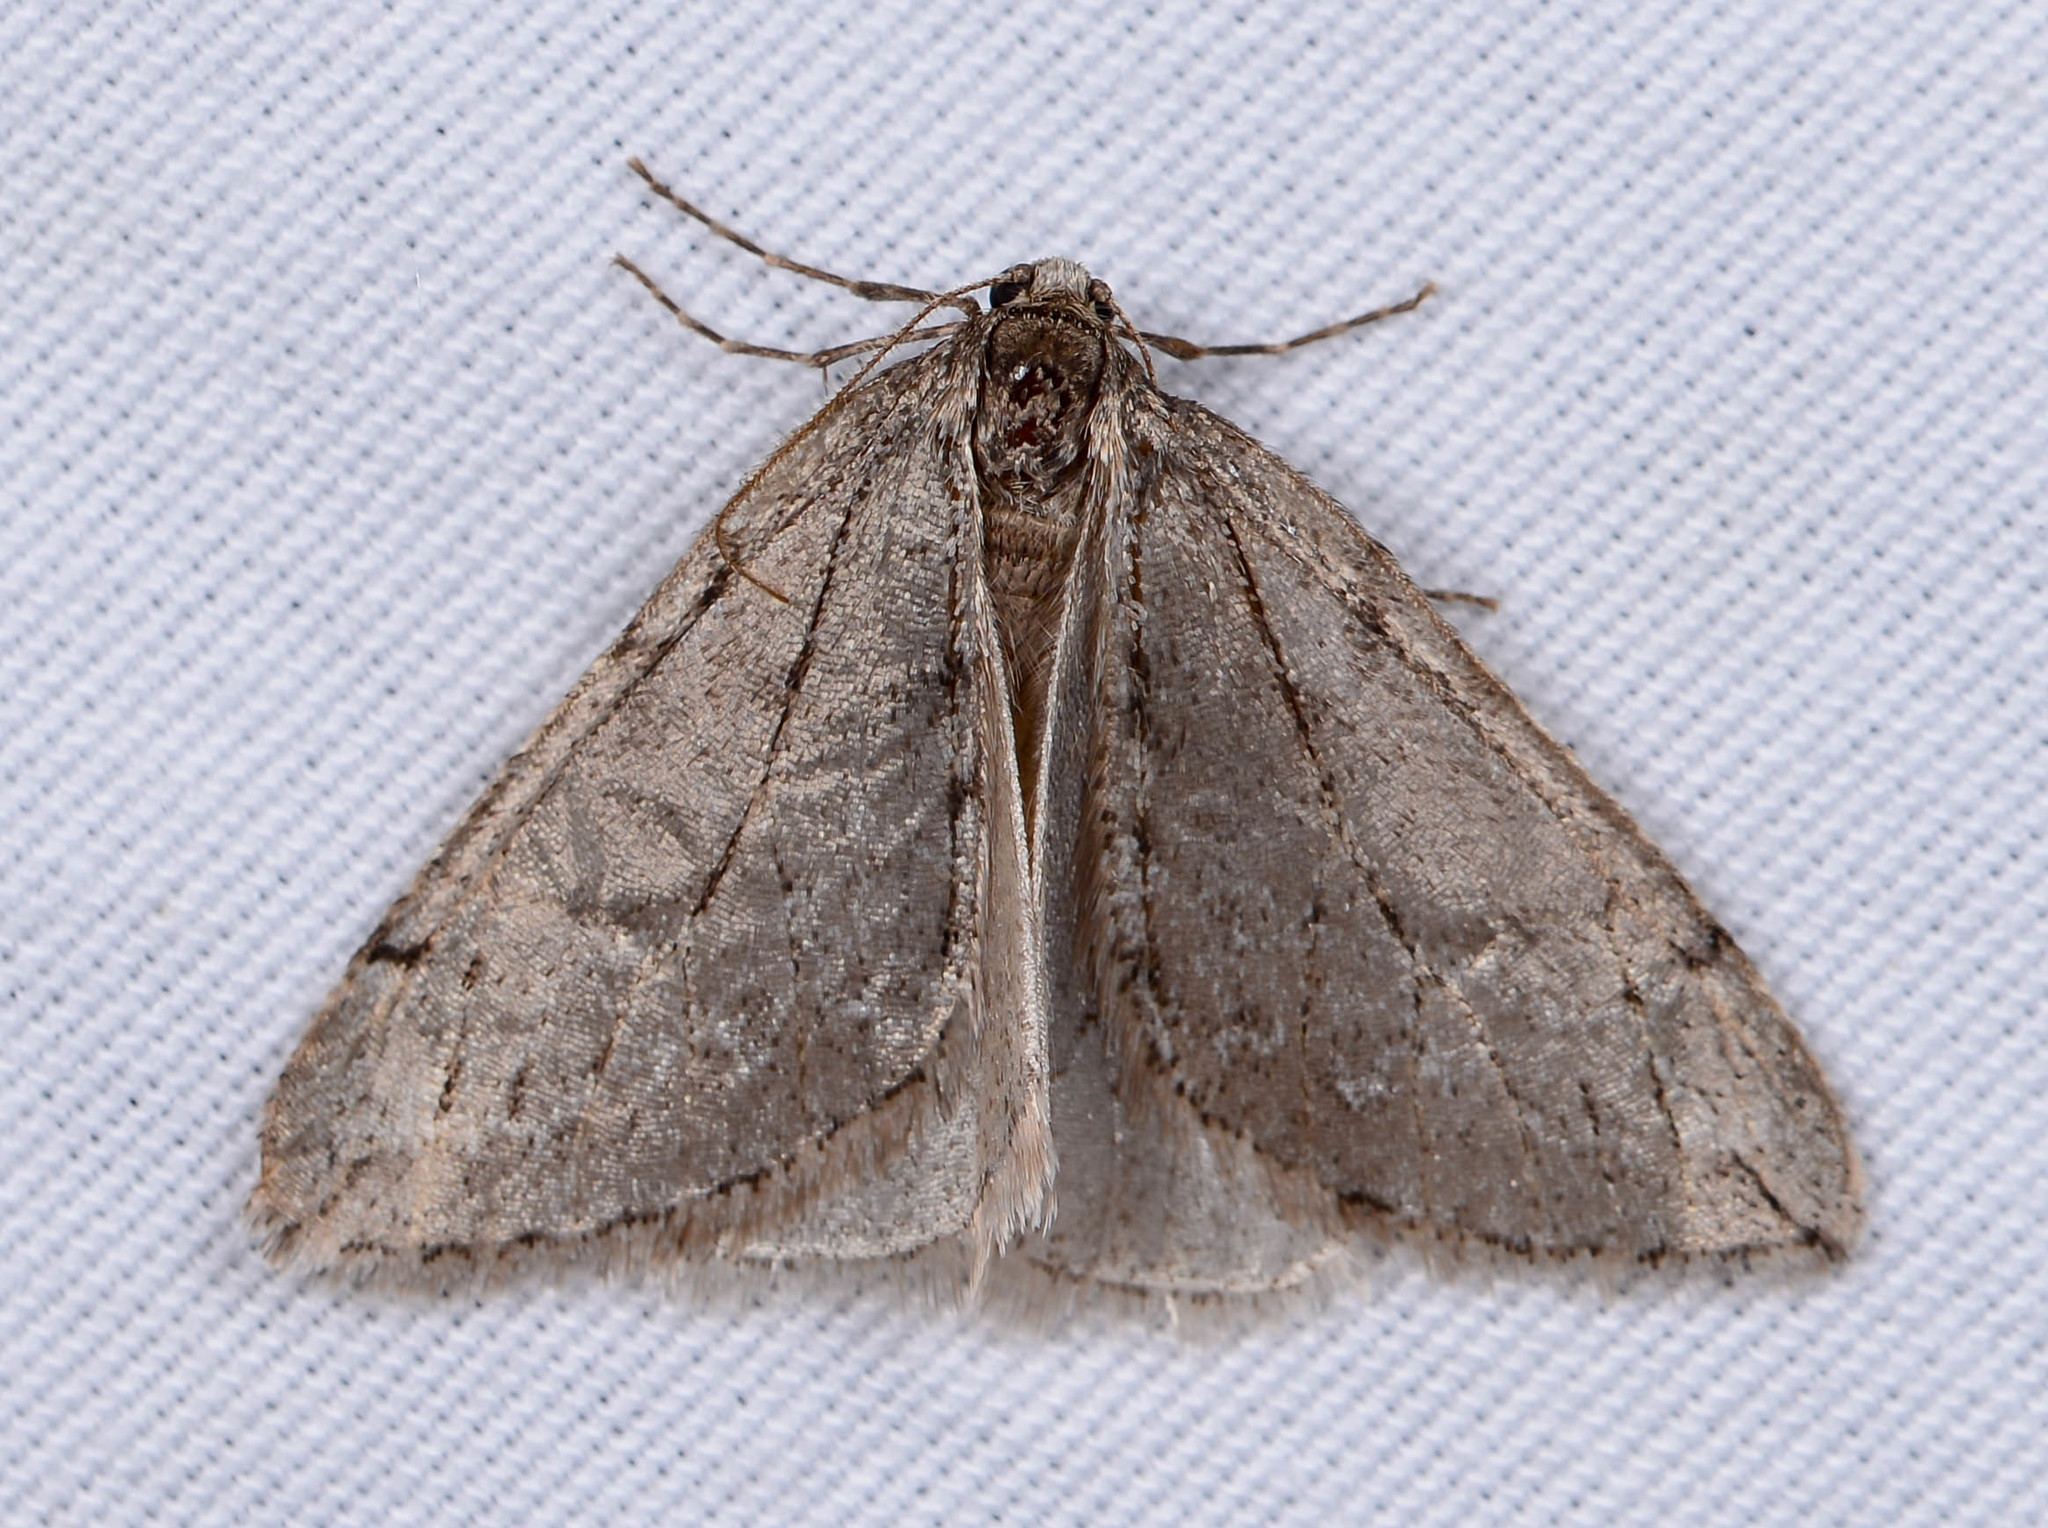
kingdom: Animalia
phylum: Arthropoda
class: Insecta
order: Lepidoptera
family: Geometridae
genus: Paleacrita
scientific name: Paleacrita vernata
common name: Spring cankerworm
